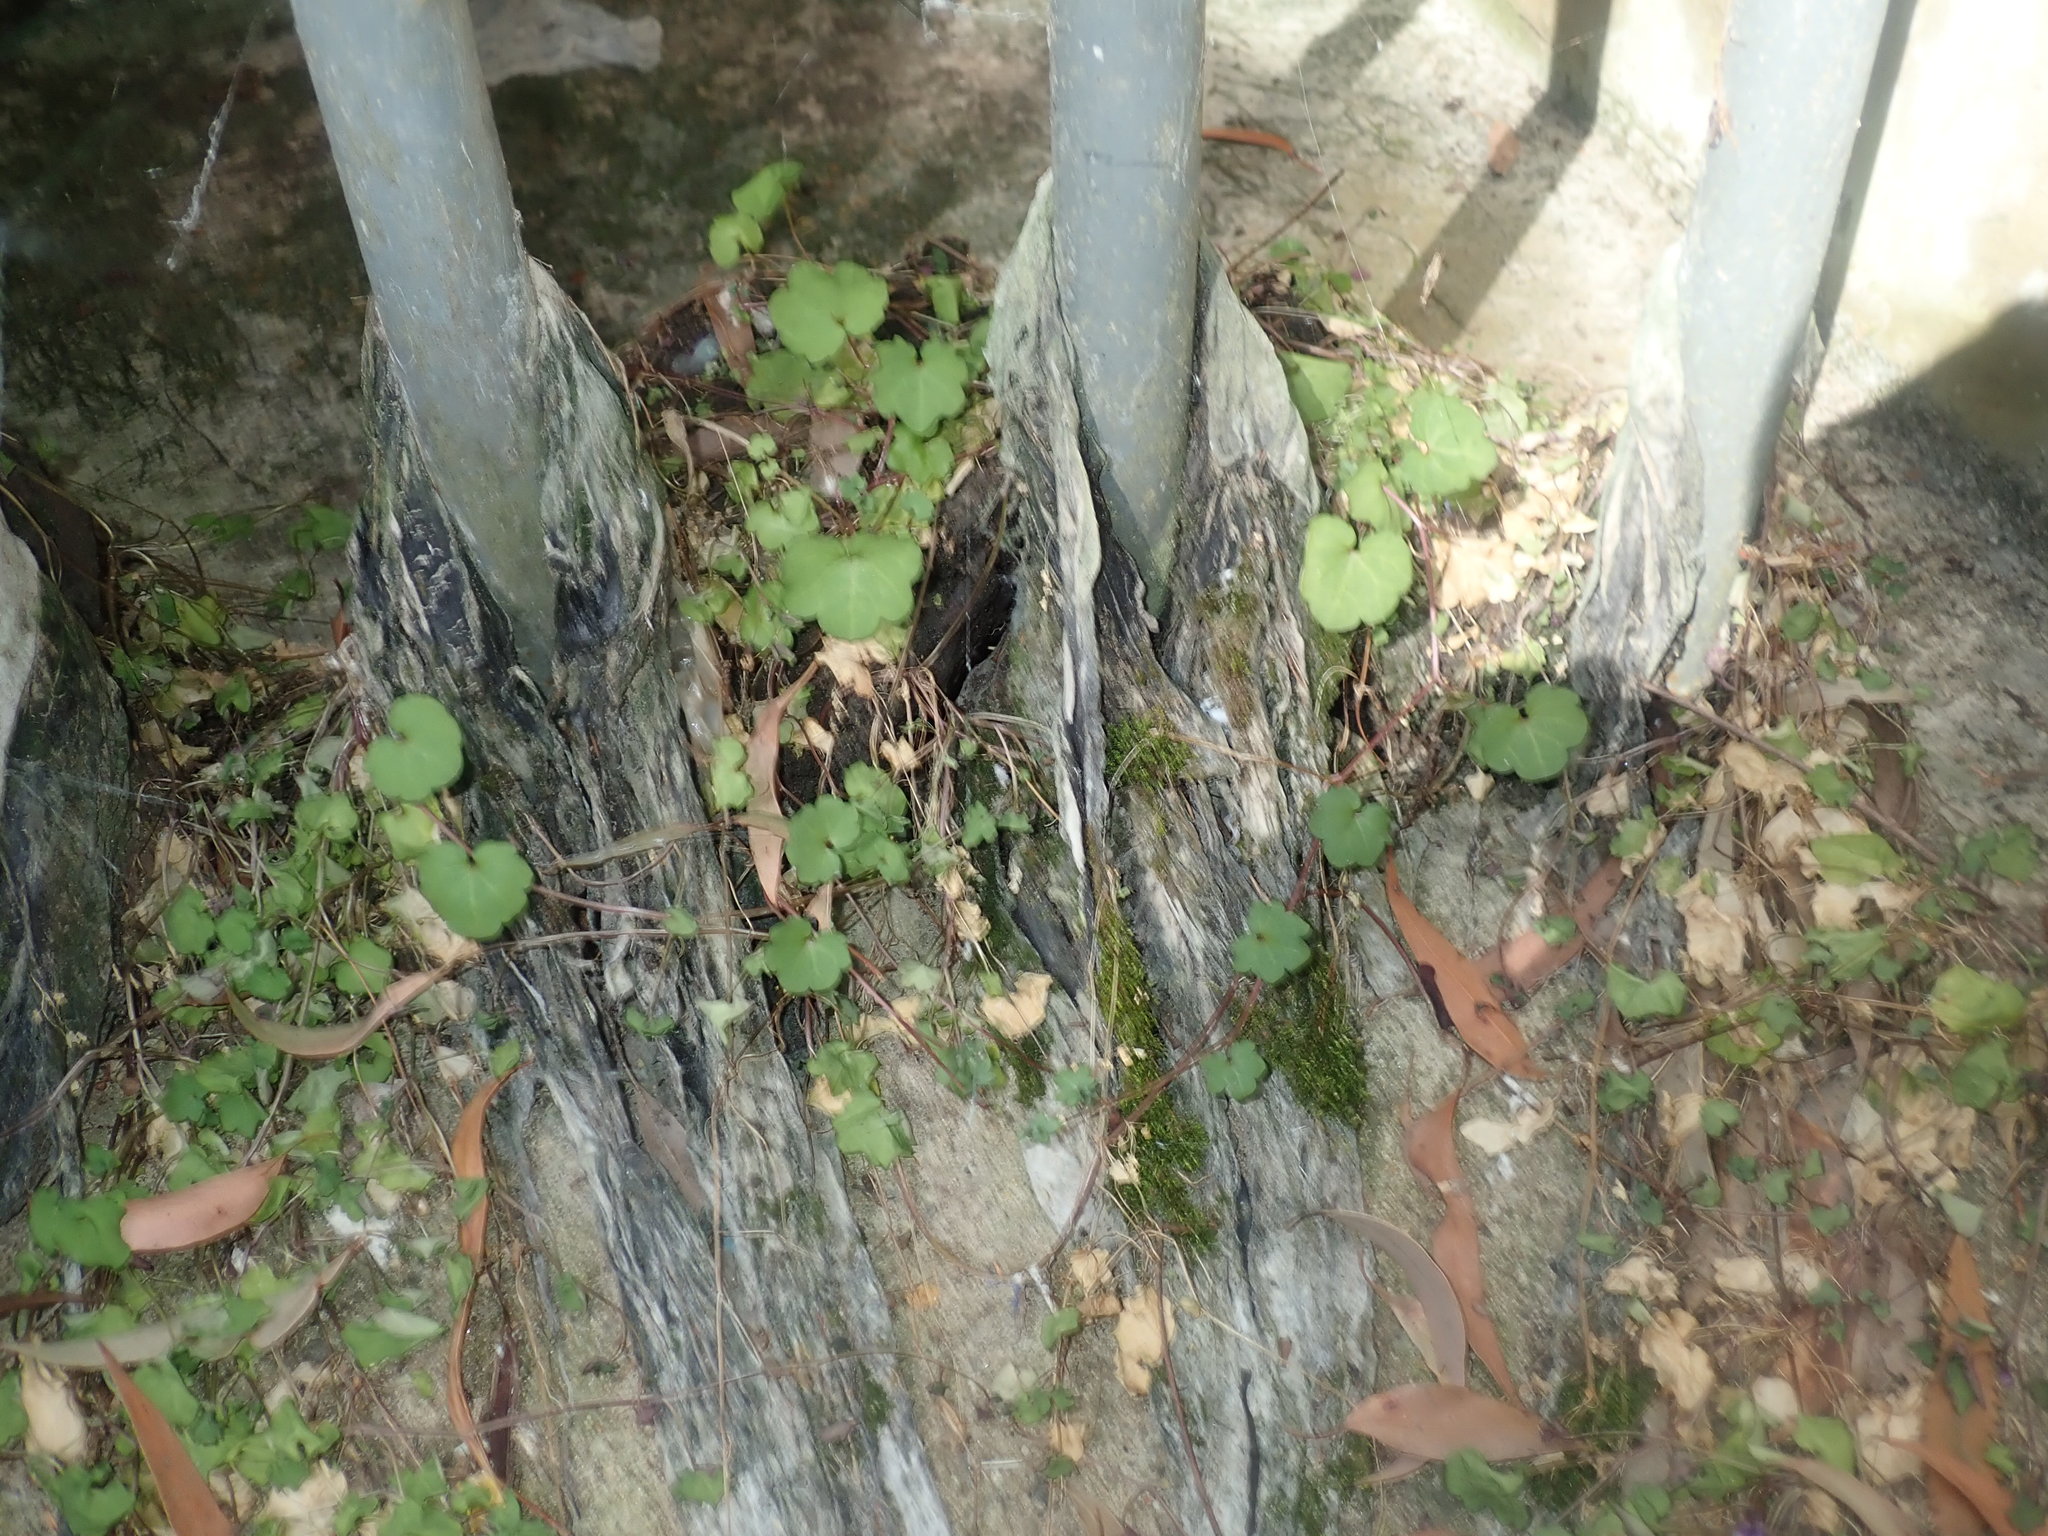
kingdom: Plantae
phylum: Tracheophyta
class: Magnoliopsida
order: Lamiales
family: Plantaginaceae
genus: Cymbalaria
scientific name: Cymbalaria muralis
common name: Ivy-leaved toadflax
